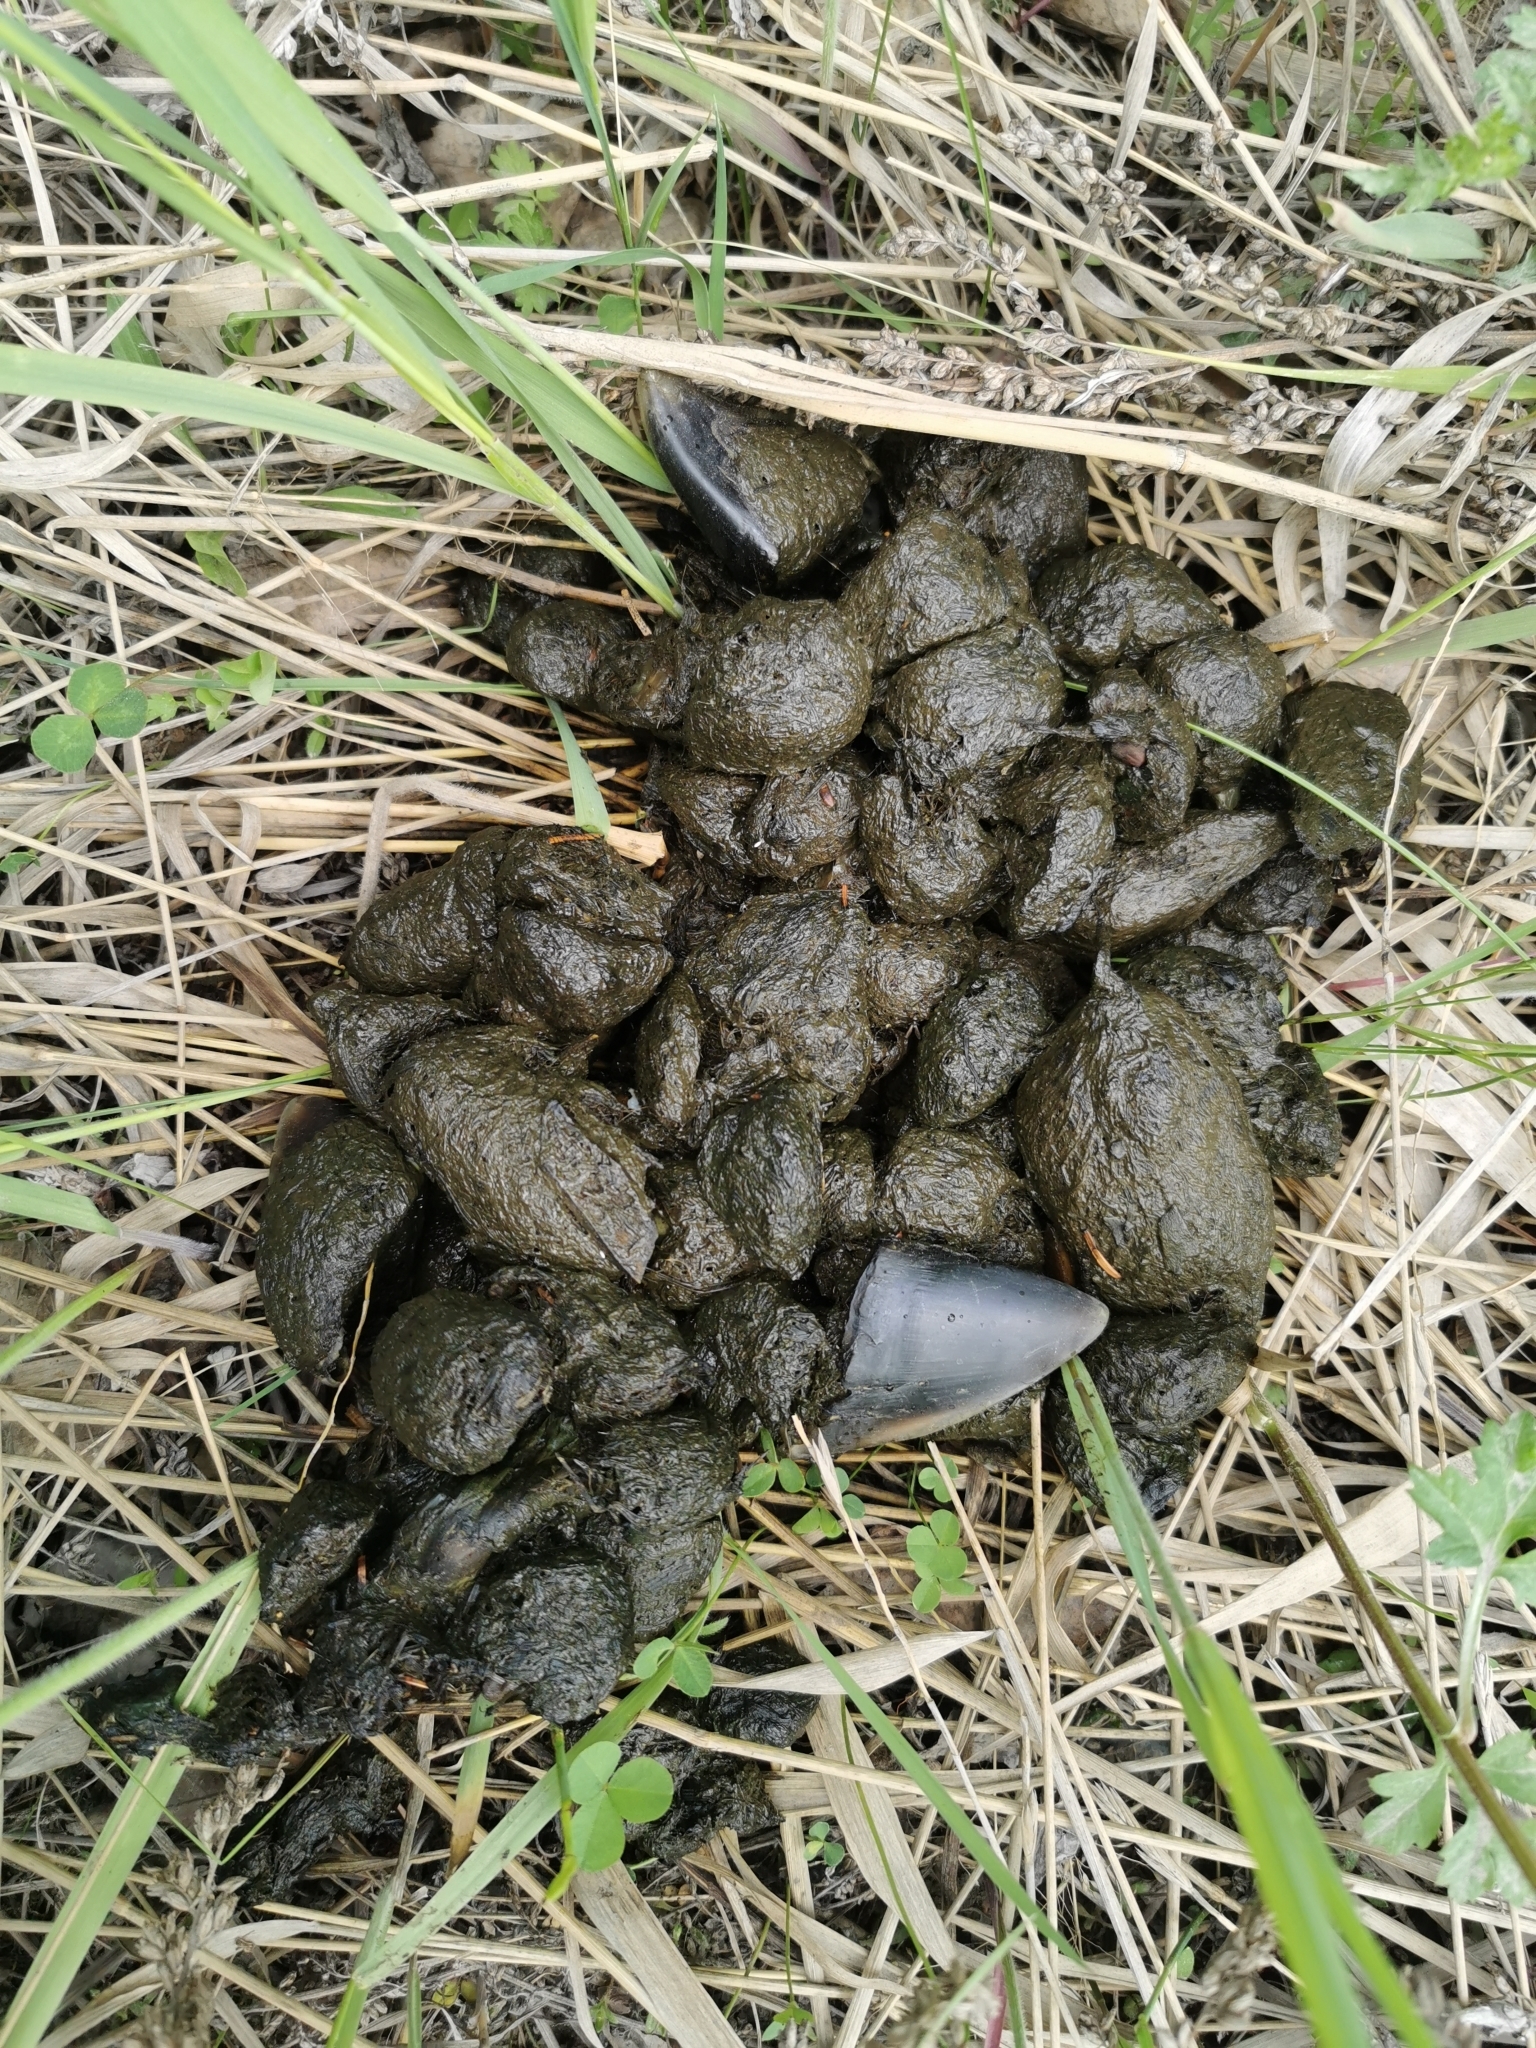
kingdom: Animalia
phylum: Chordata
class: Mammalia
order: Artiodactyla
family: Cervidae
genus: Alces
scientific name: Alces alces
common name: Moose
